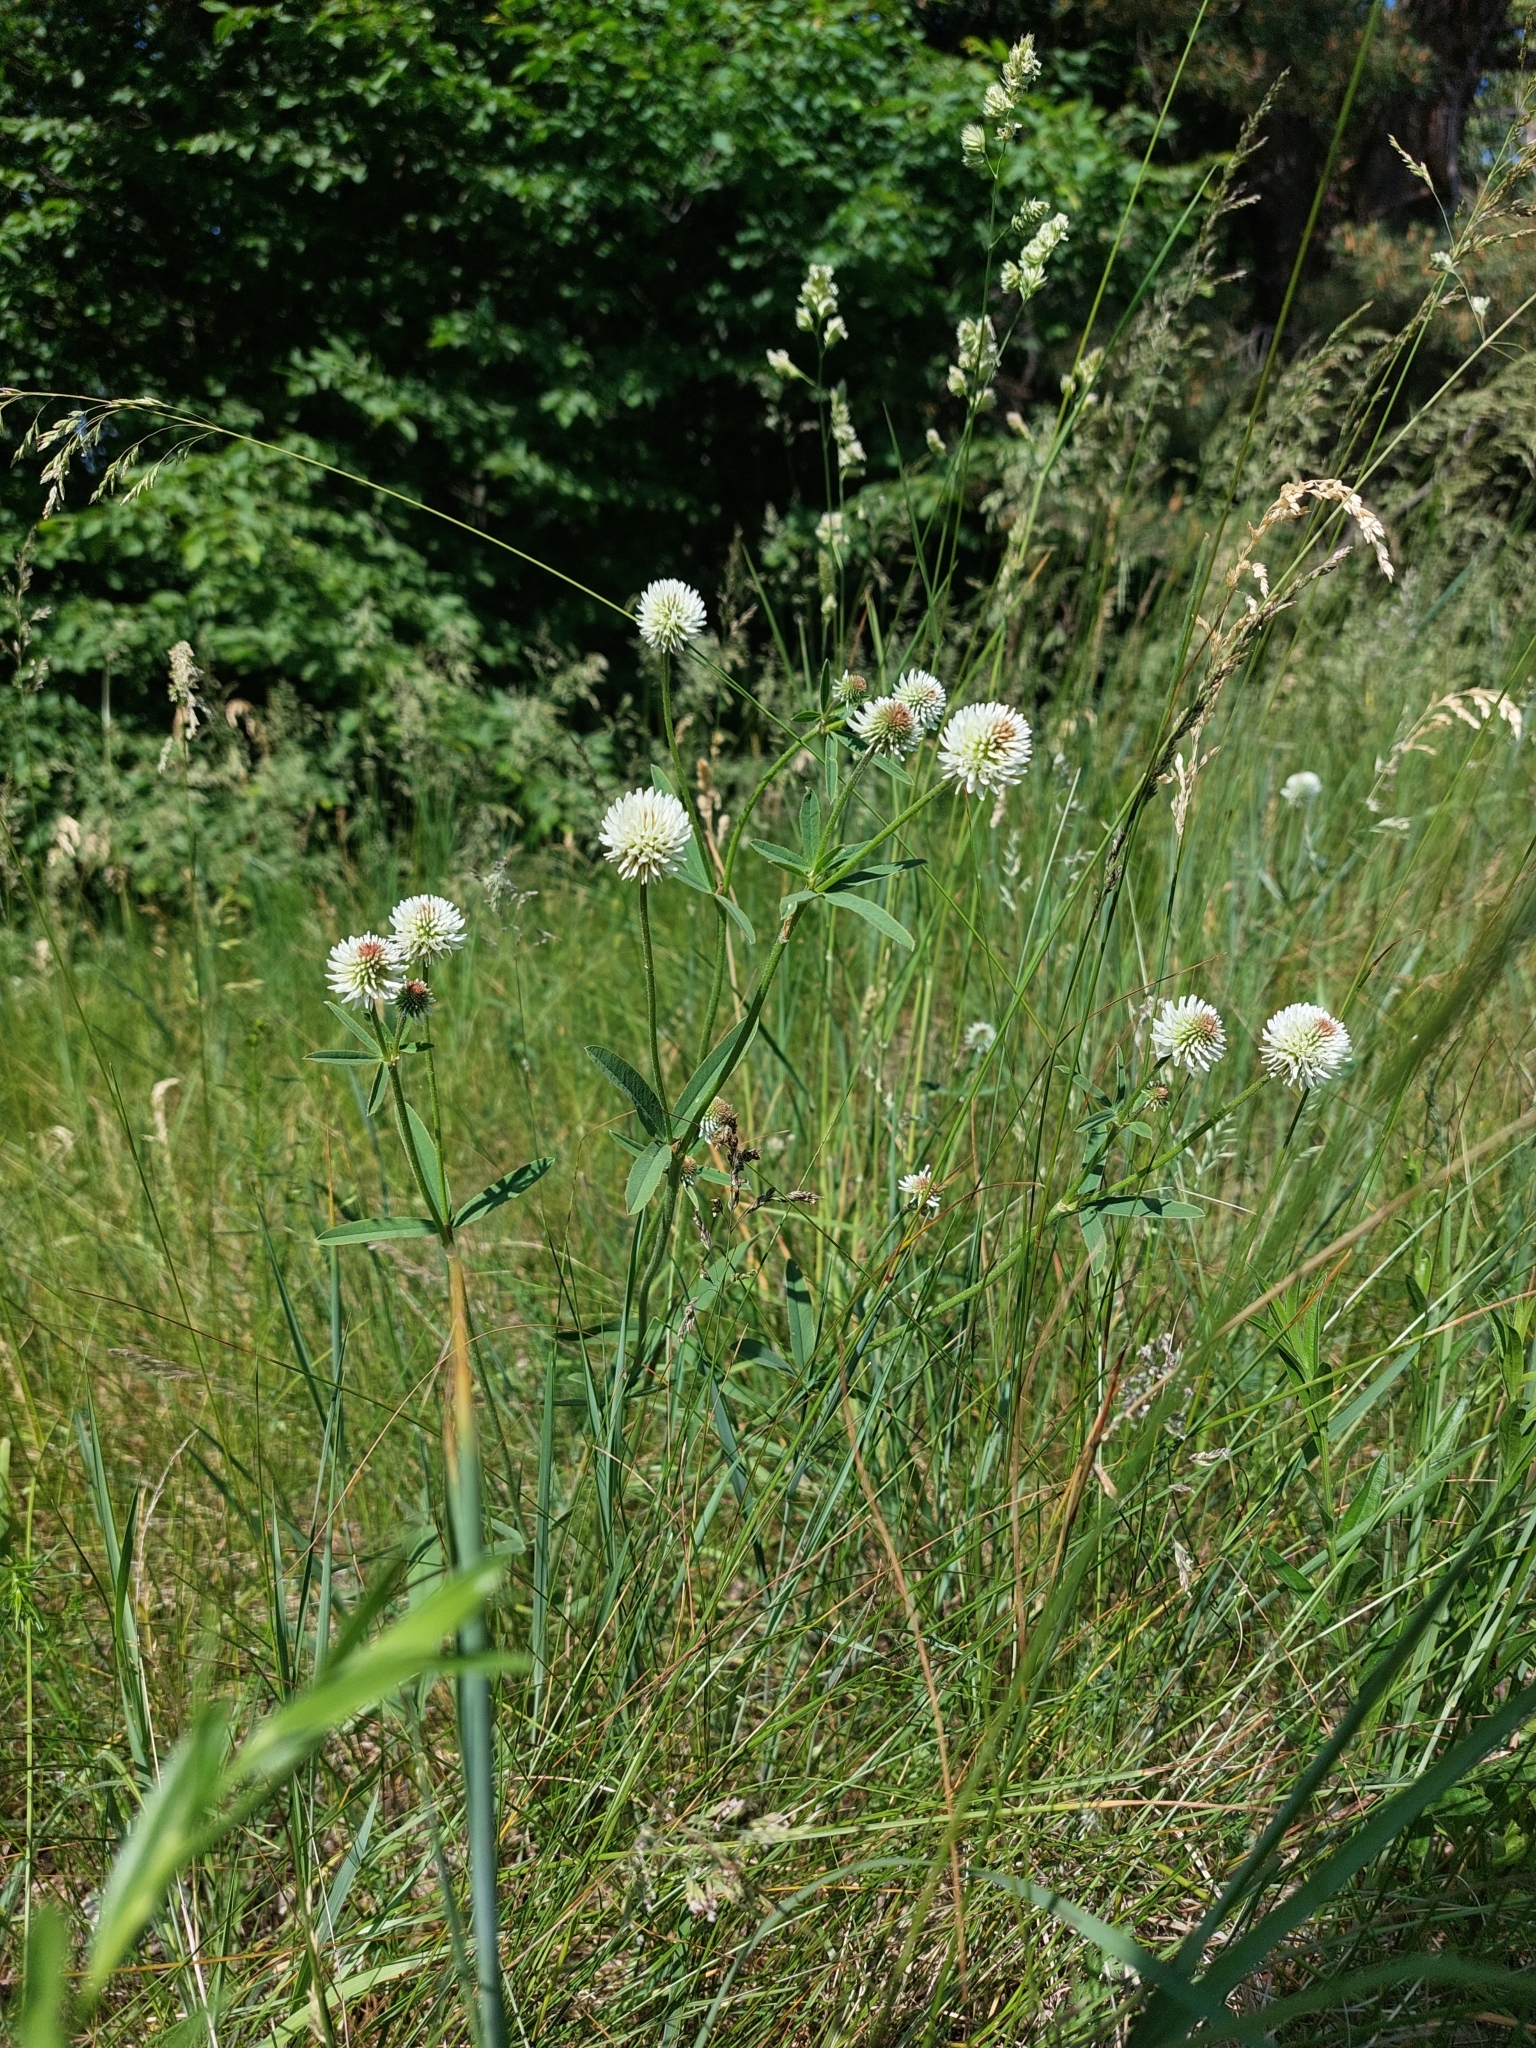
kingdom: Plantae
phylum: Tracheophyta
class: Magnoliopsida
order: Fabales
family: Fabaceae
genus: Trifolium
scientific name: Trifolium montanum
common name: Mountain clover
